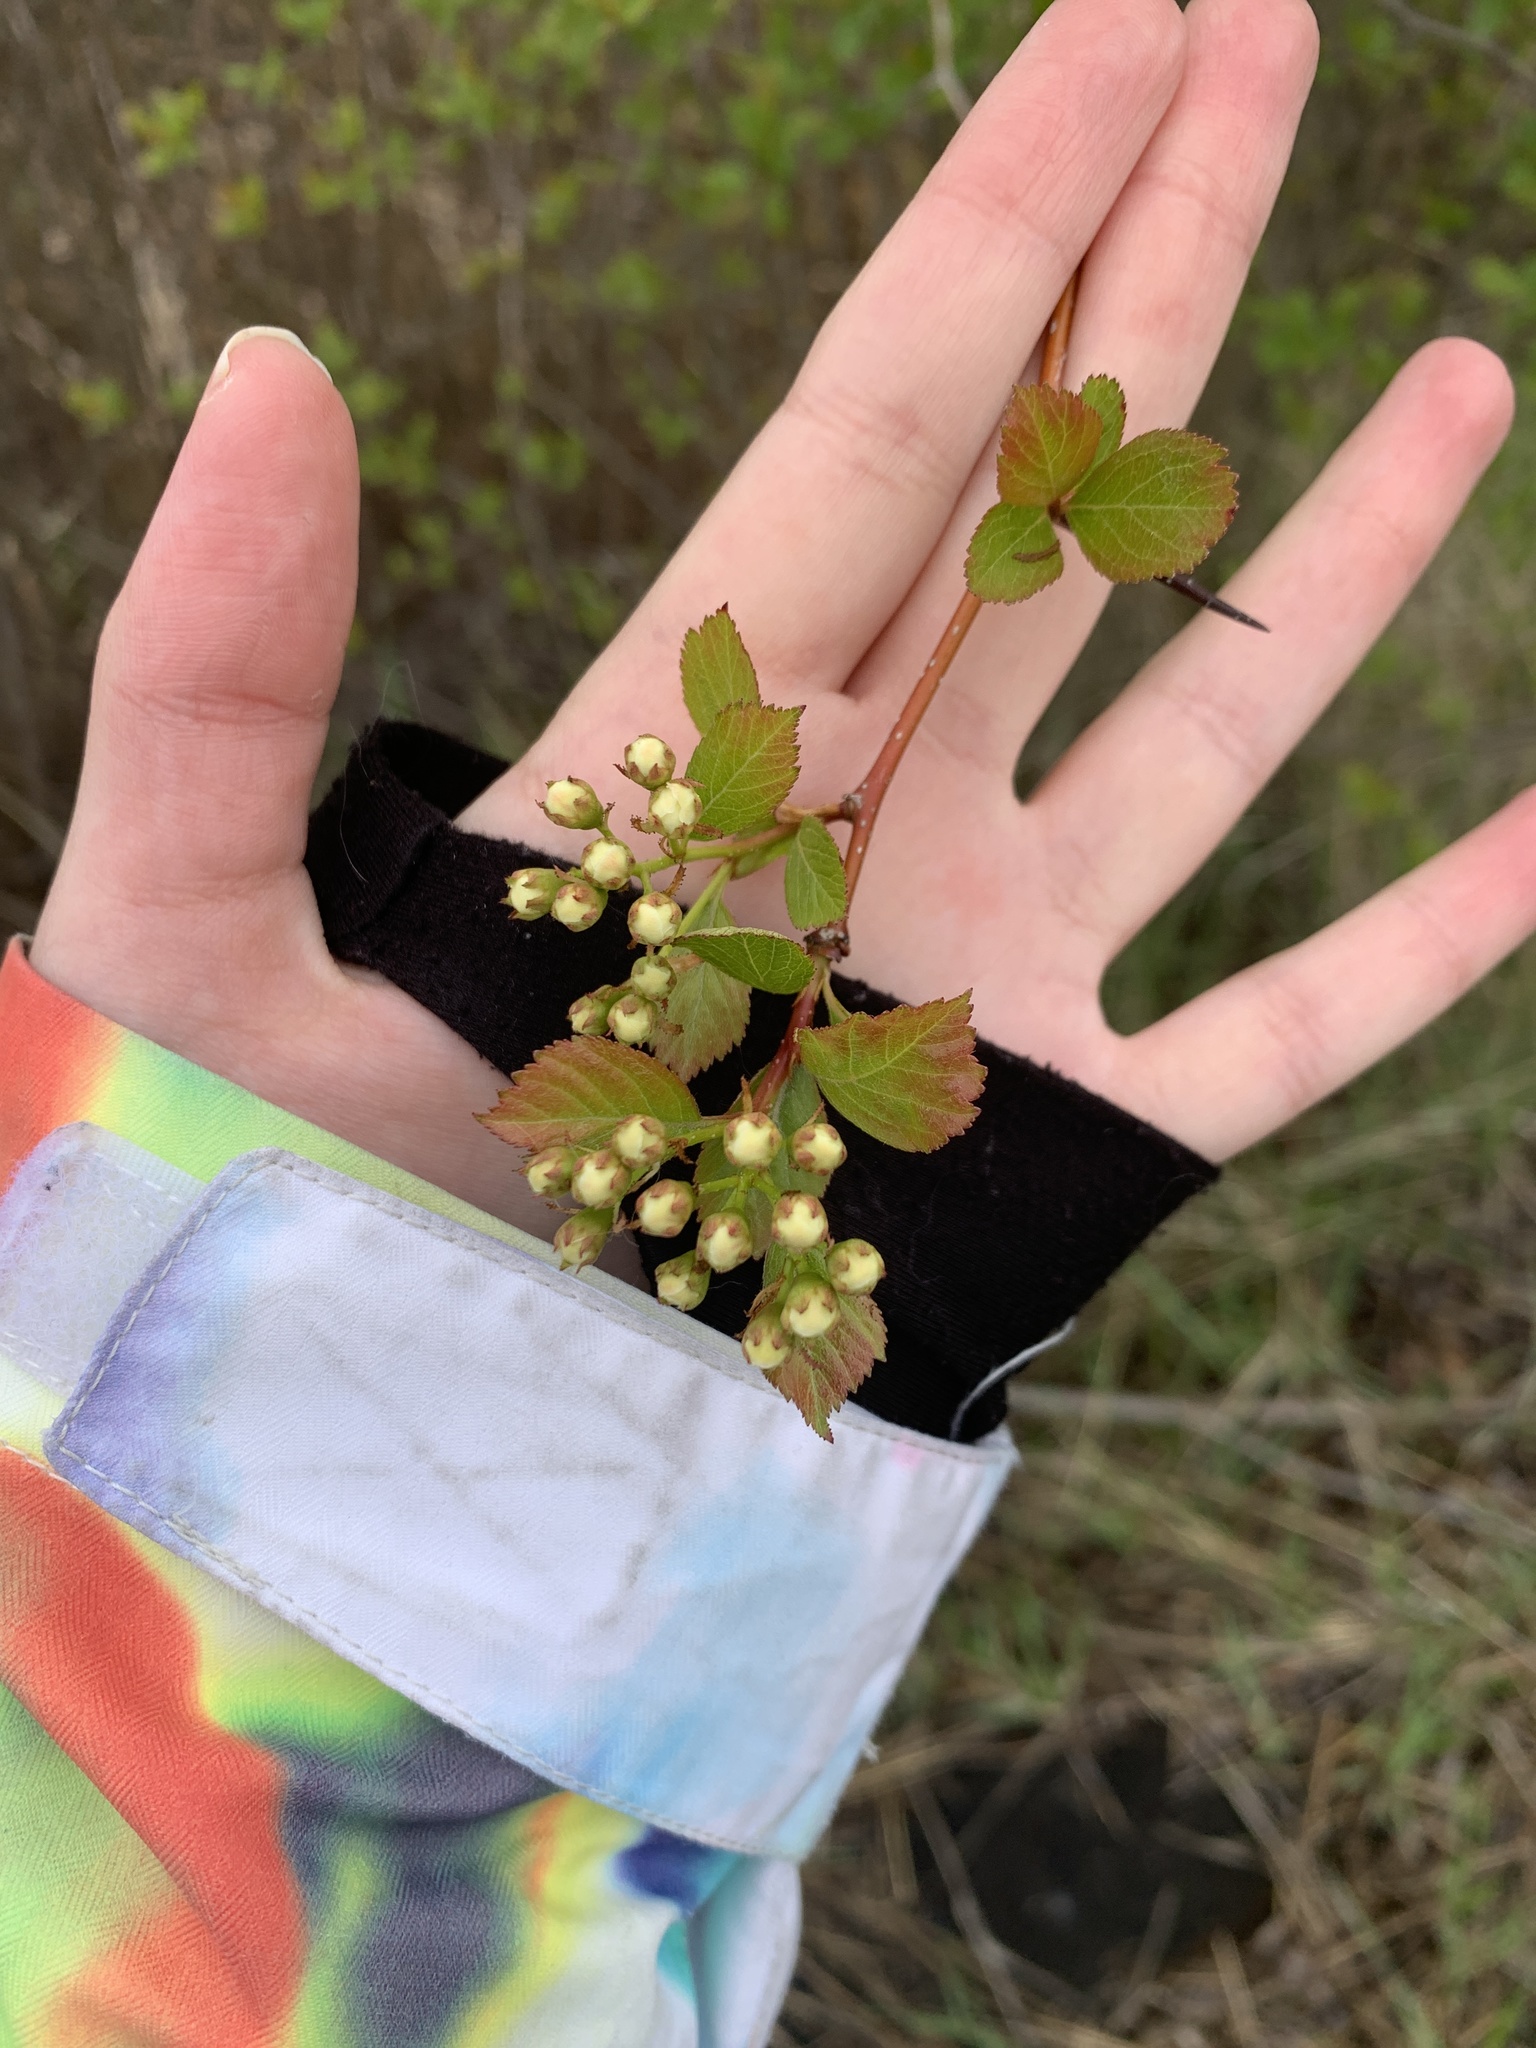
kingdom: Plantae
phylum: Tracheophyta
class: Magnoliopsida
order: Rosales
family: Rosaceae
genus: Crataegus
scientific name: Crataegus douglasii
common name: Black hawthorn
